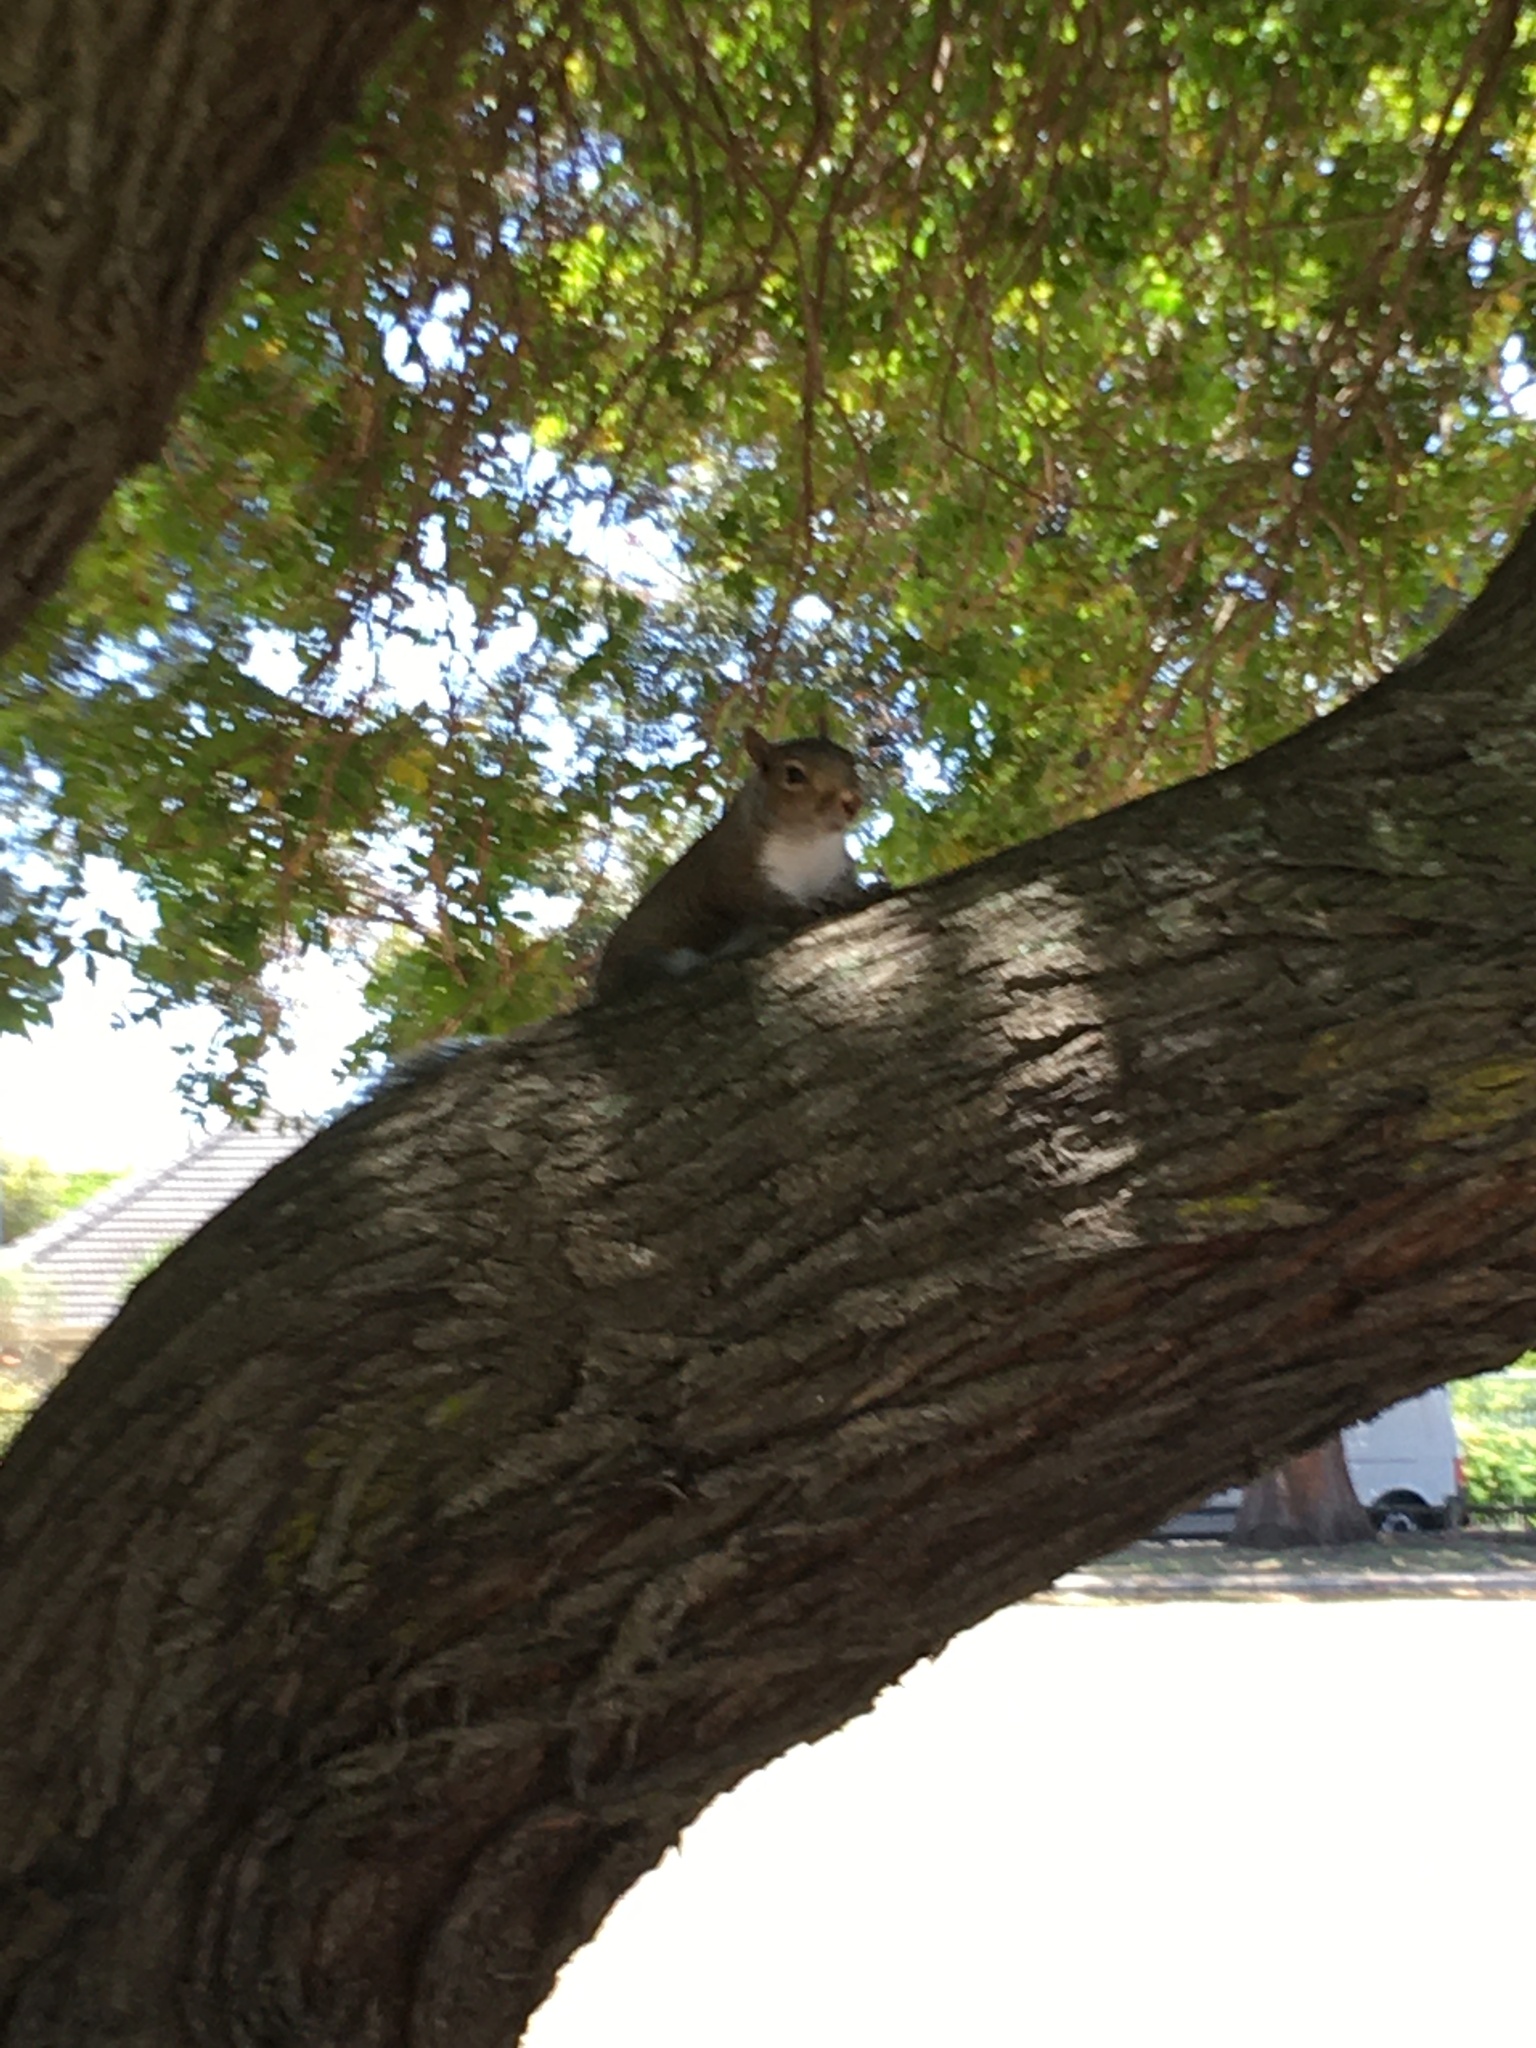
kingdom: Animalia
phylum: Chordata
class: Mammalia
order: Rodentia
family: Sciuridae
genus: Sciurus
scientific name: Sciurus carolinensis
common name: Eastern gray squirrel
